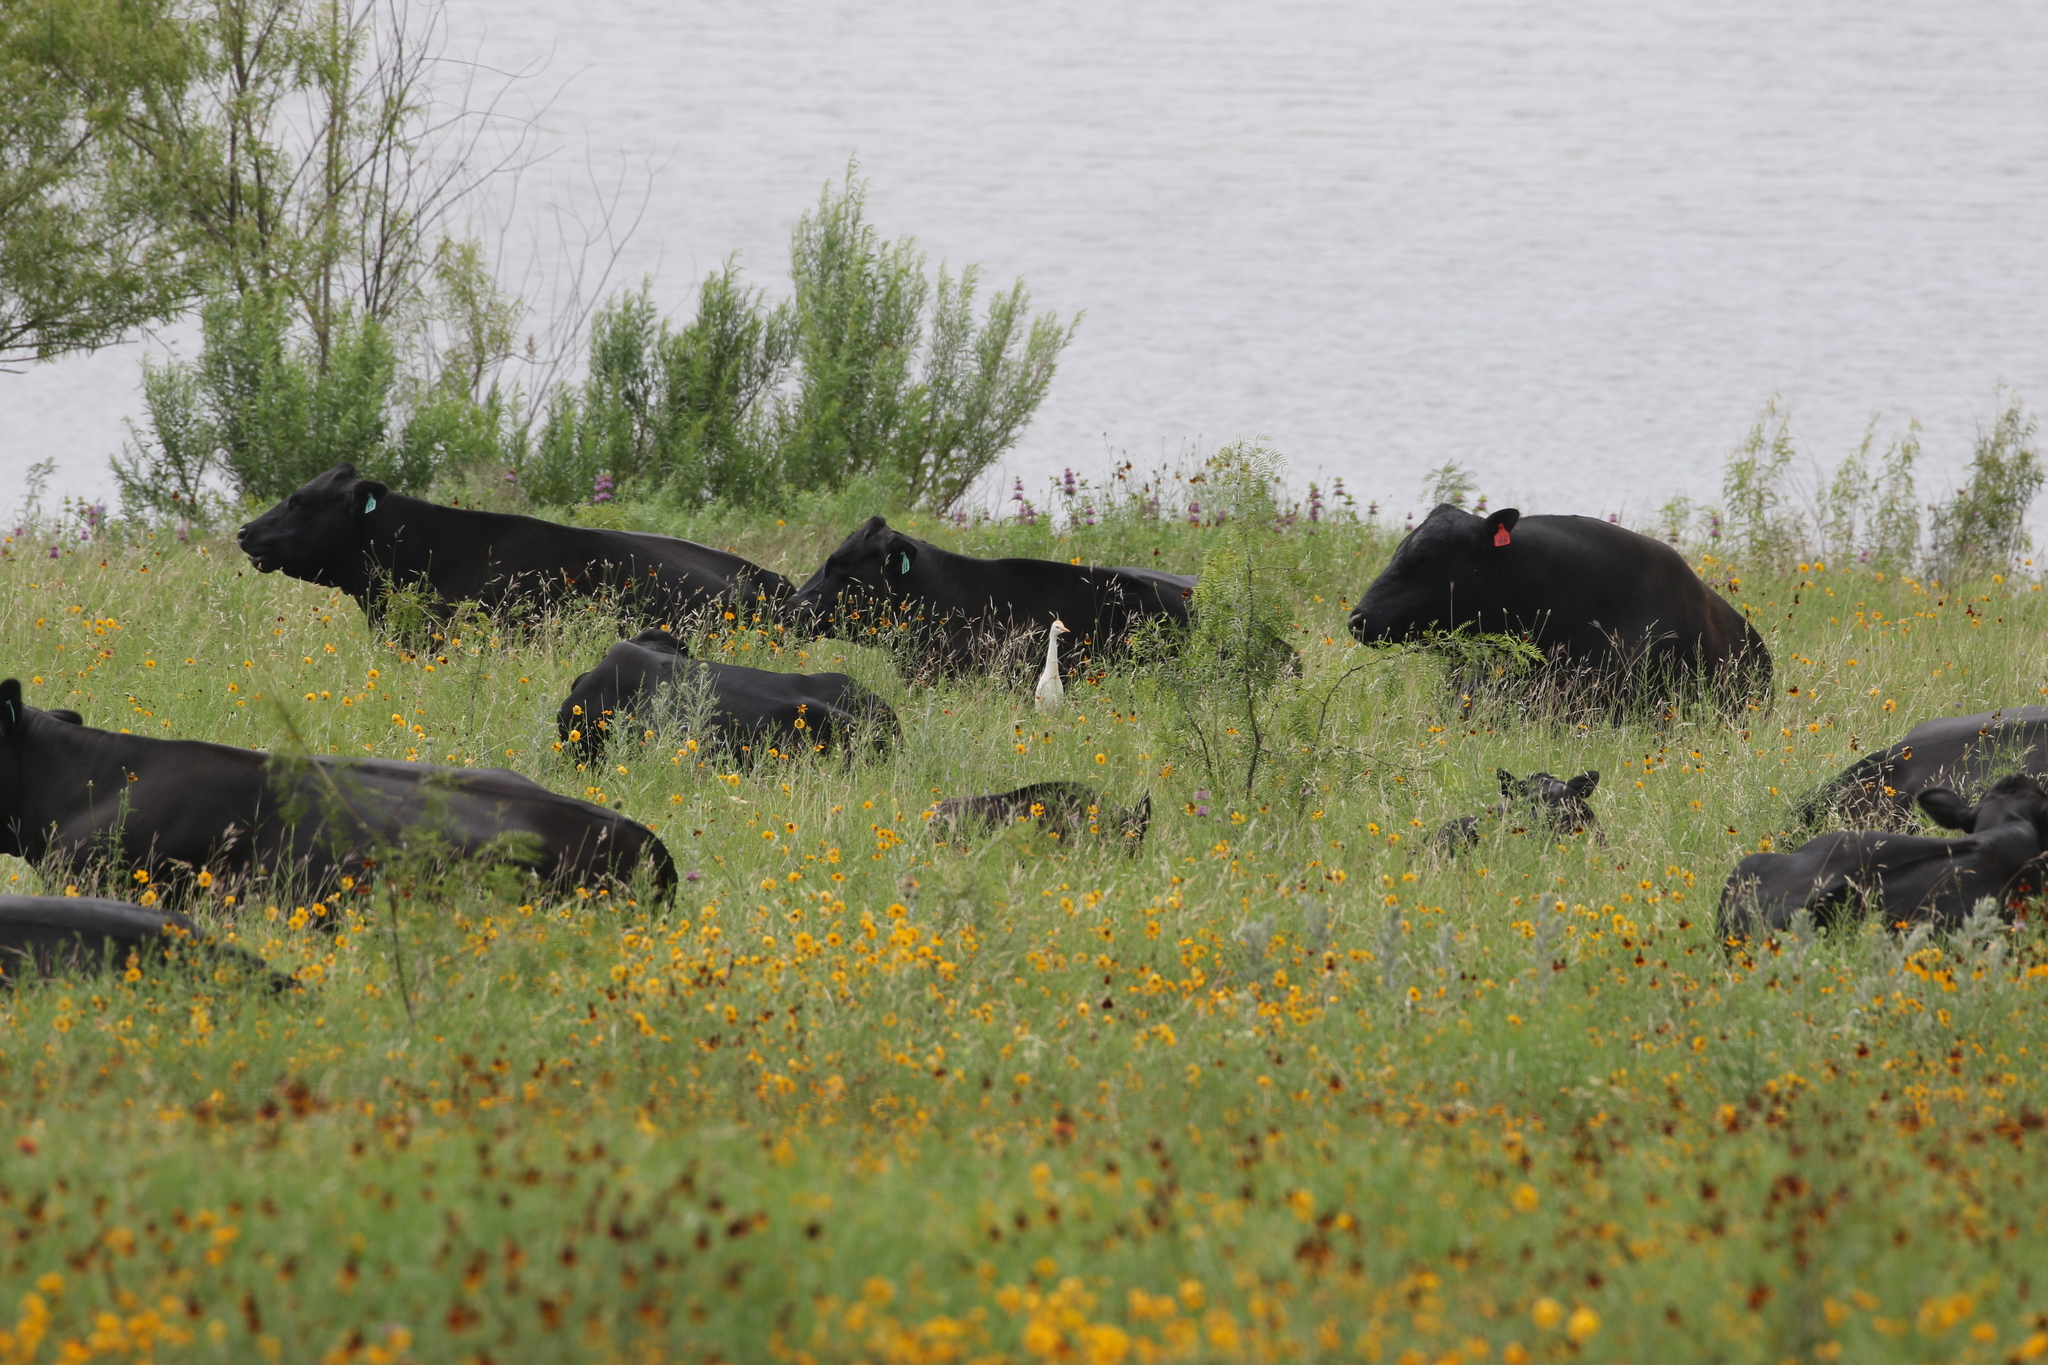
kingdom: Animalia
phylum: Chordata
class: Aves
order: Pelecaniformes
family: Ardeidae
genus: Bubulcus
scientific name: Bubulcus ibis
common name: Cattle egret
